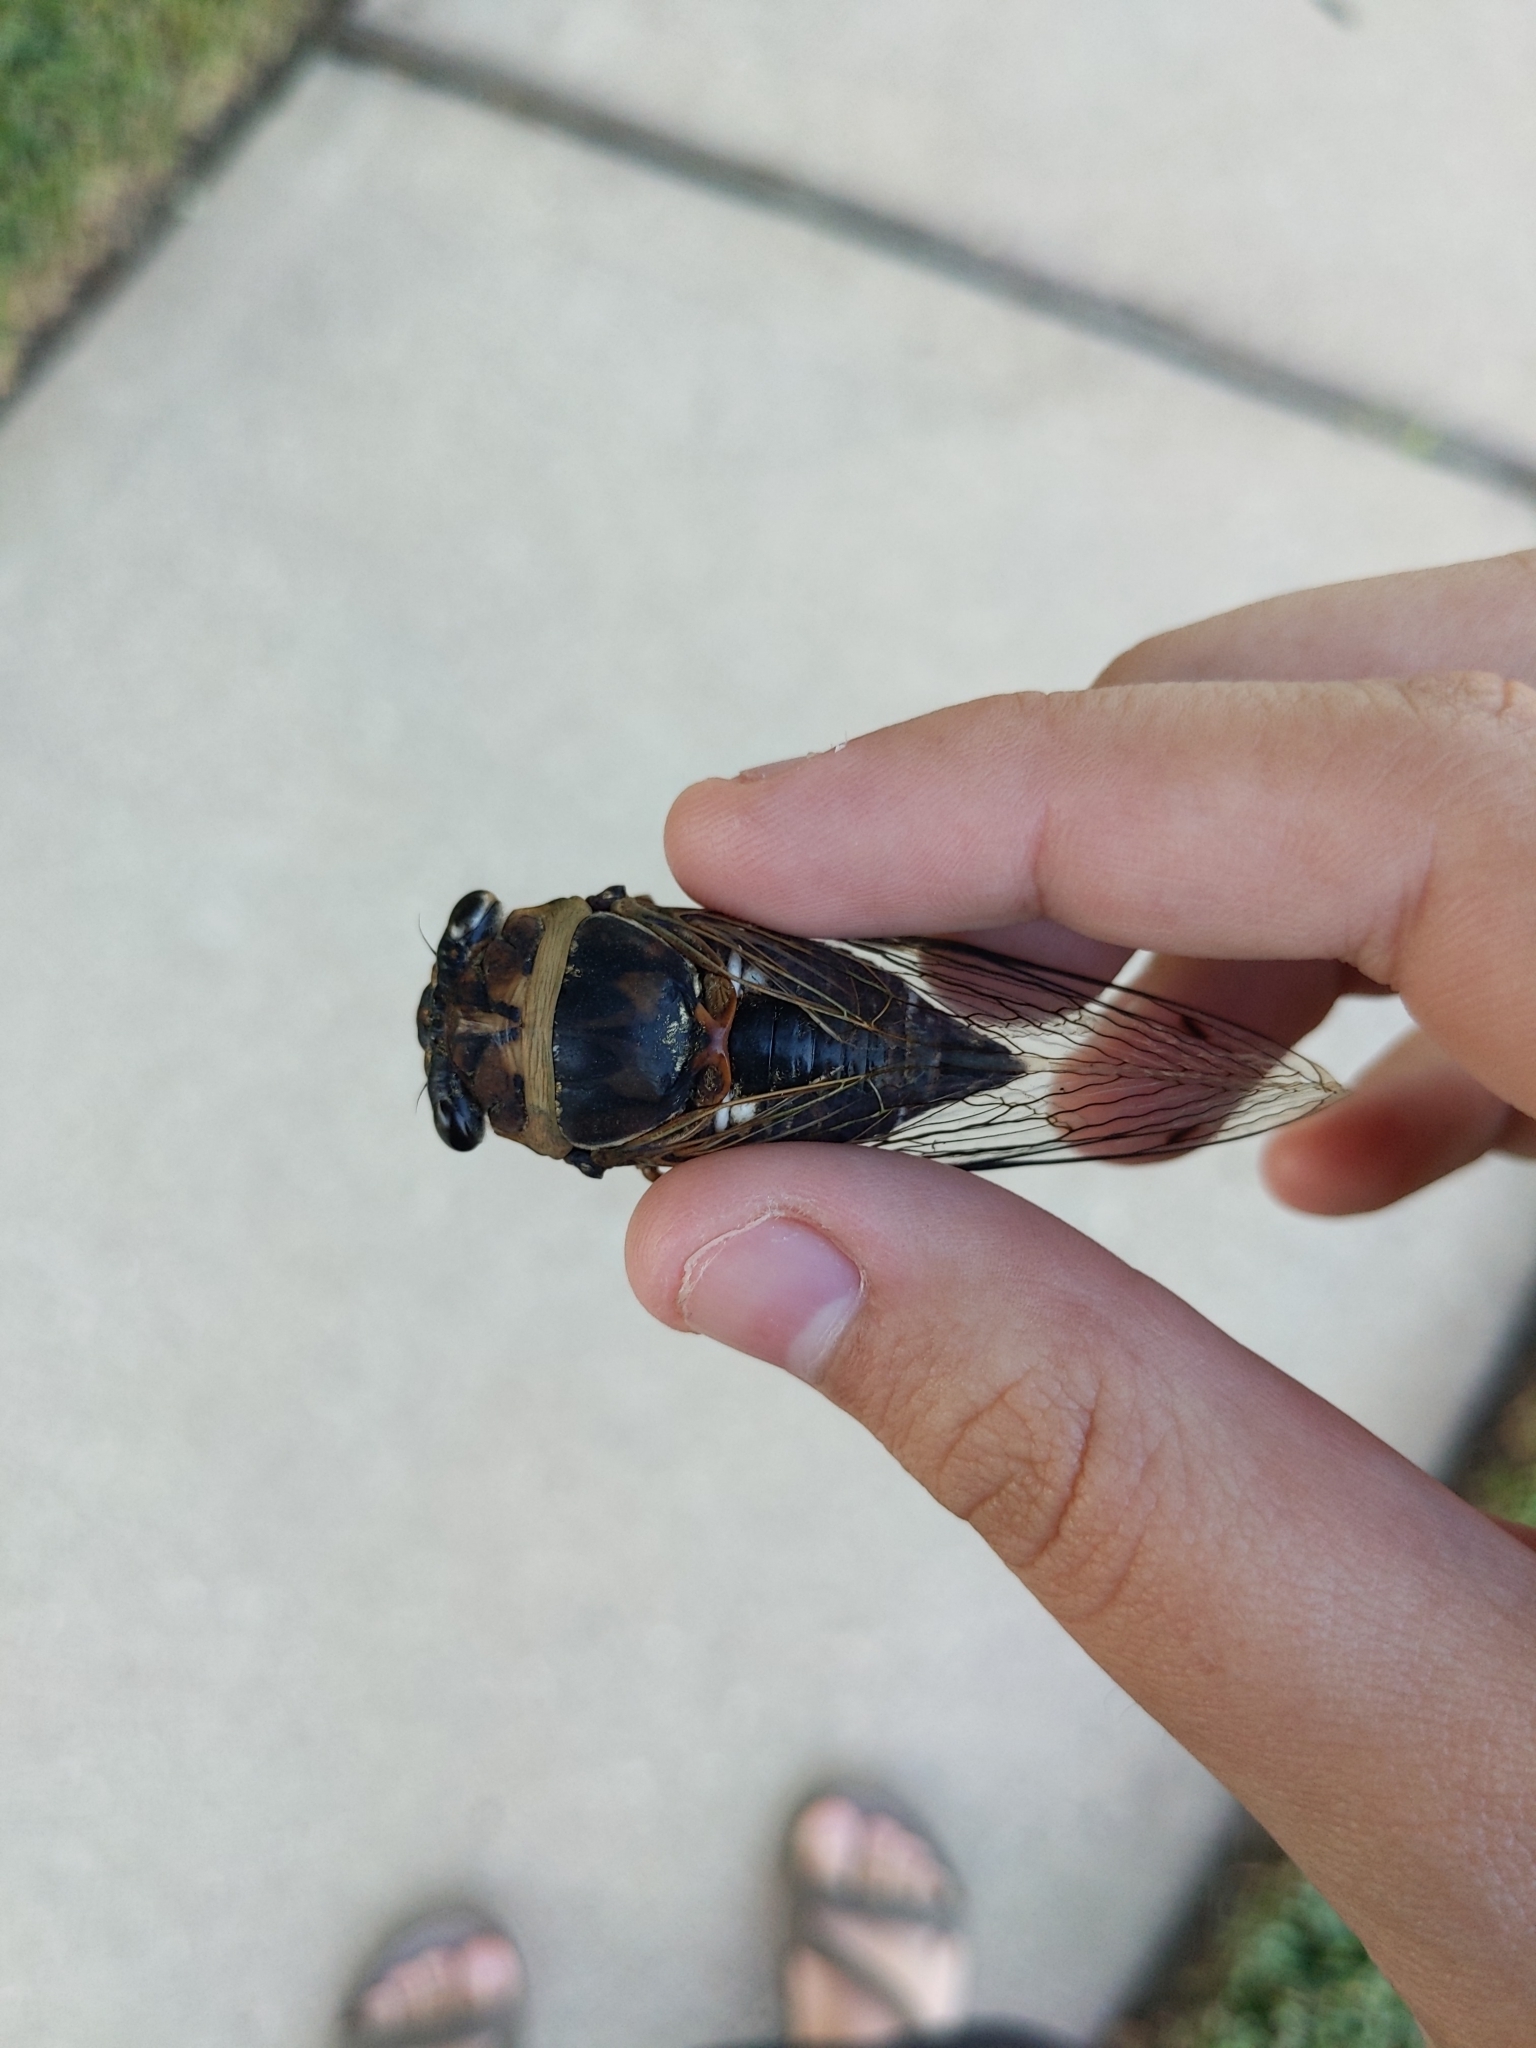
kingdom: Animalia
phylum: Arthropoda
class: Insecta
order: Hemiptera
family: Cicadidae
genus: Megatibicen
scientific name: Megatibicen resh
